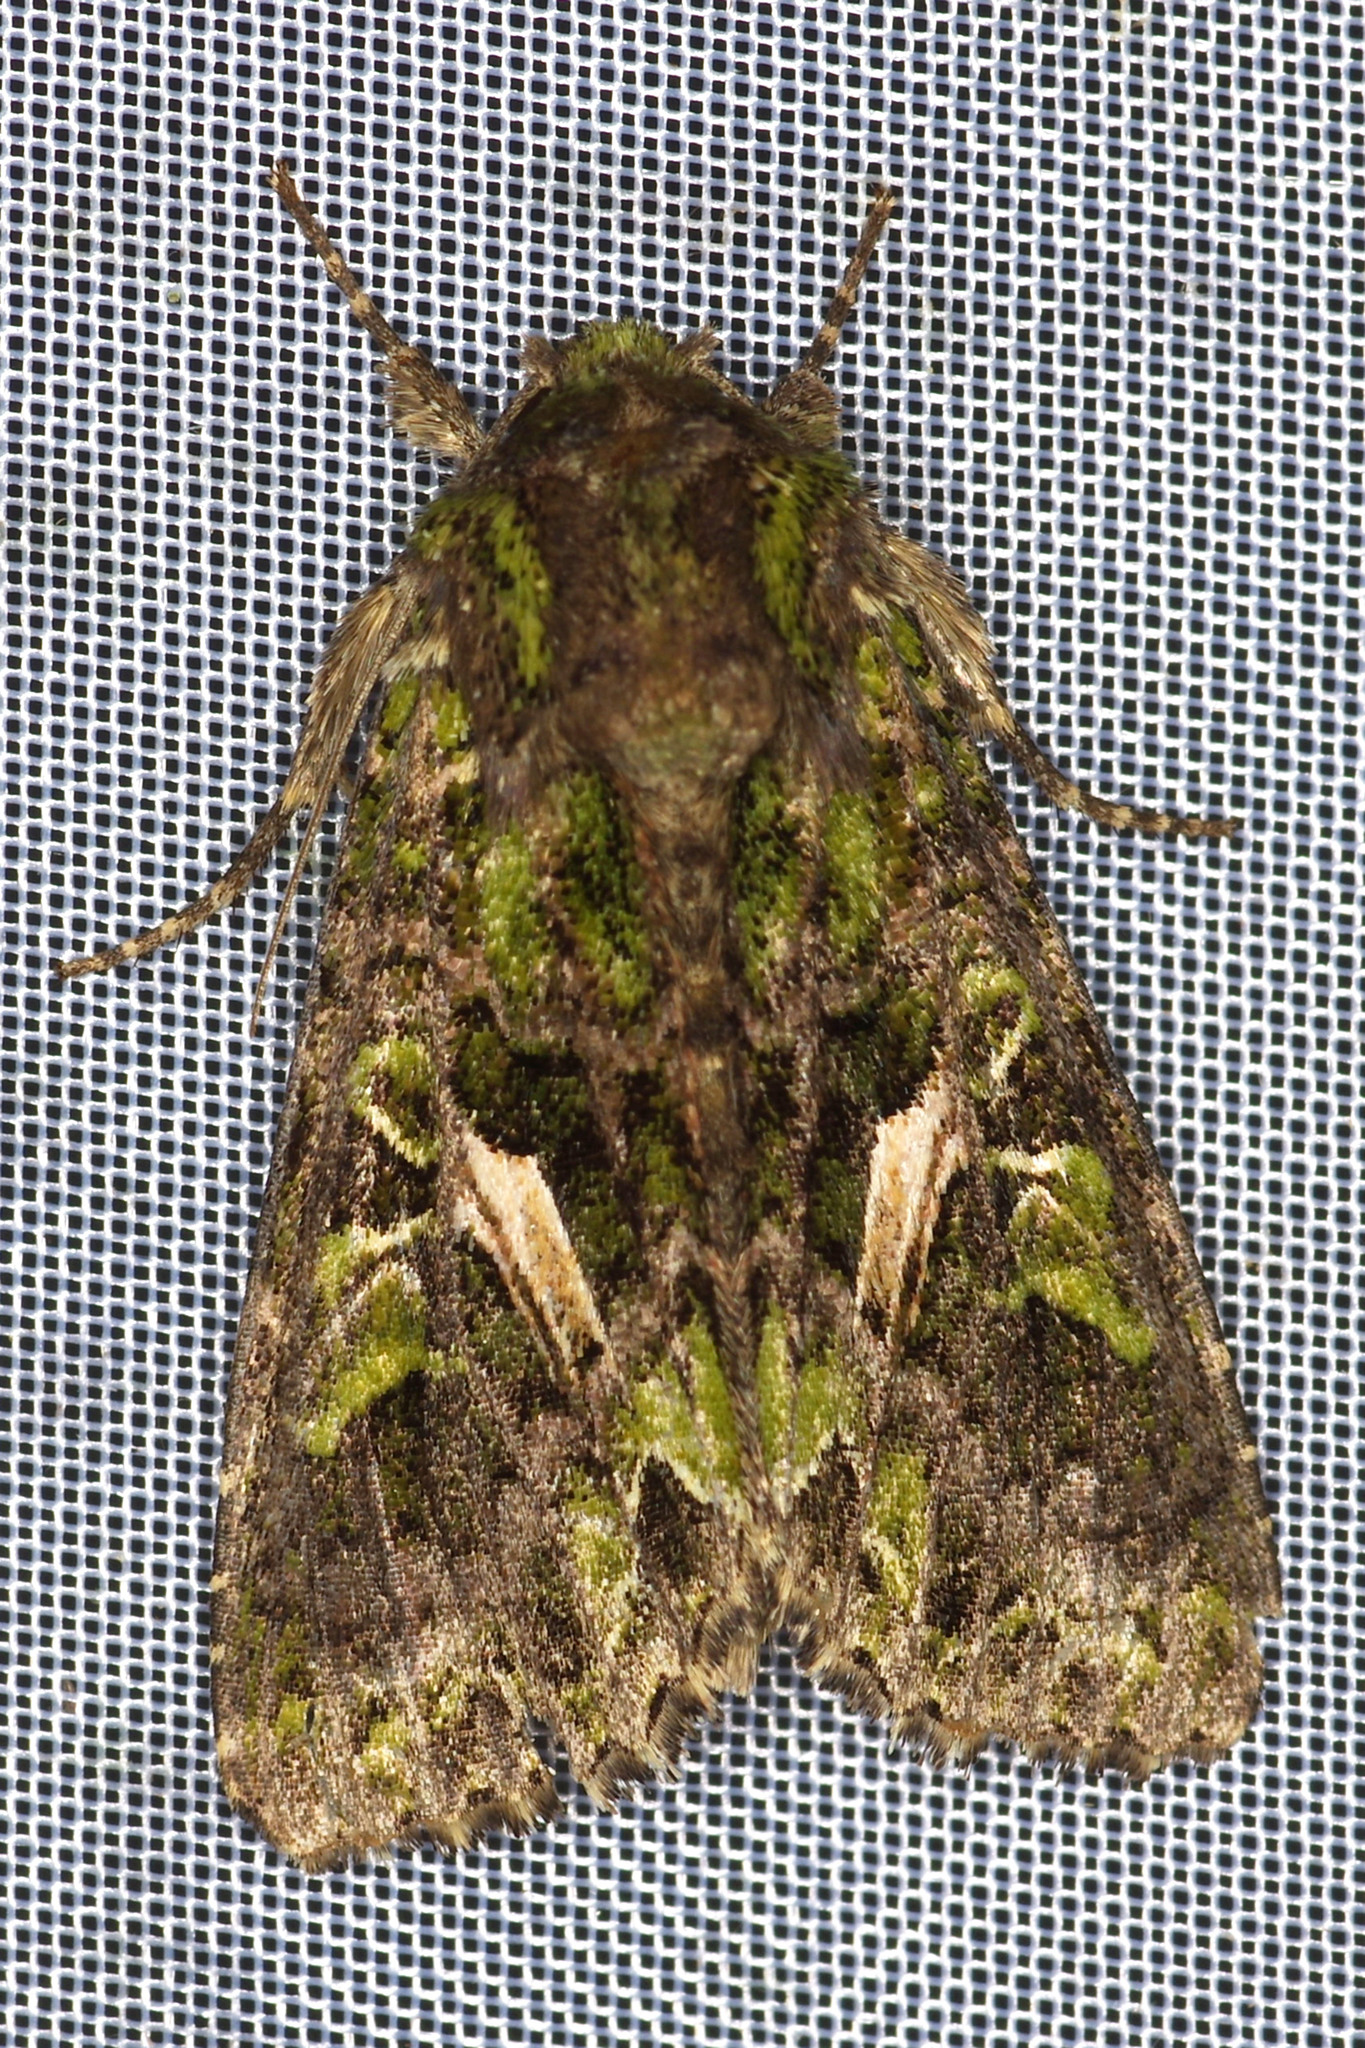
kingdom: Animalia
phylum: Arthropoda
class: Insecta
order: Lepidoptera
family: Noctuidae
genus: Trachea
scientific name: Trachea atriplicis
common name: Orache moth
